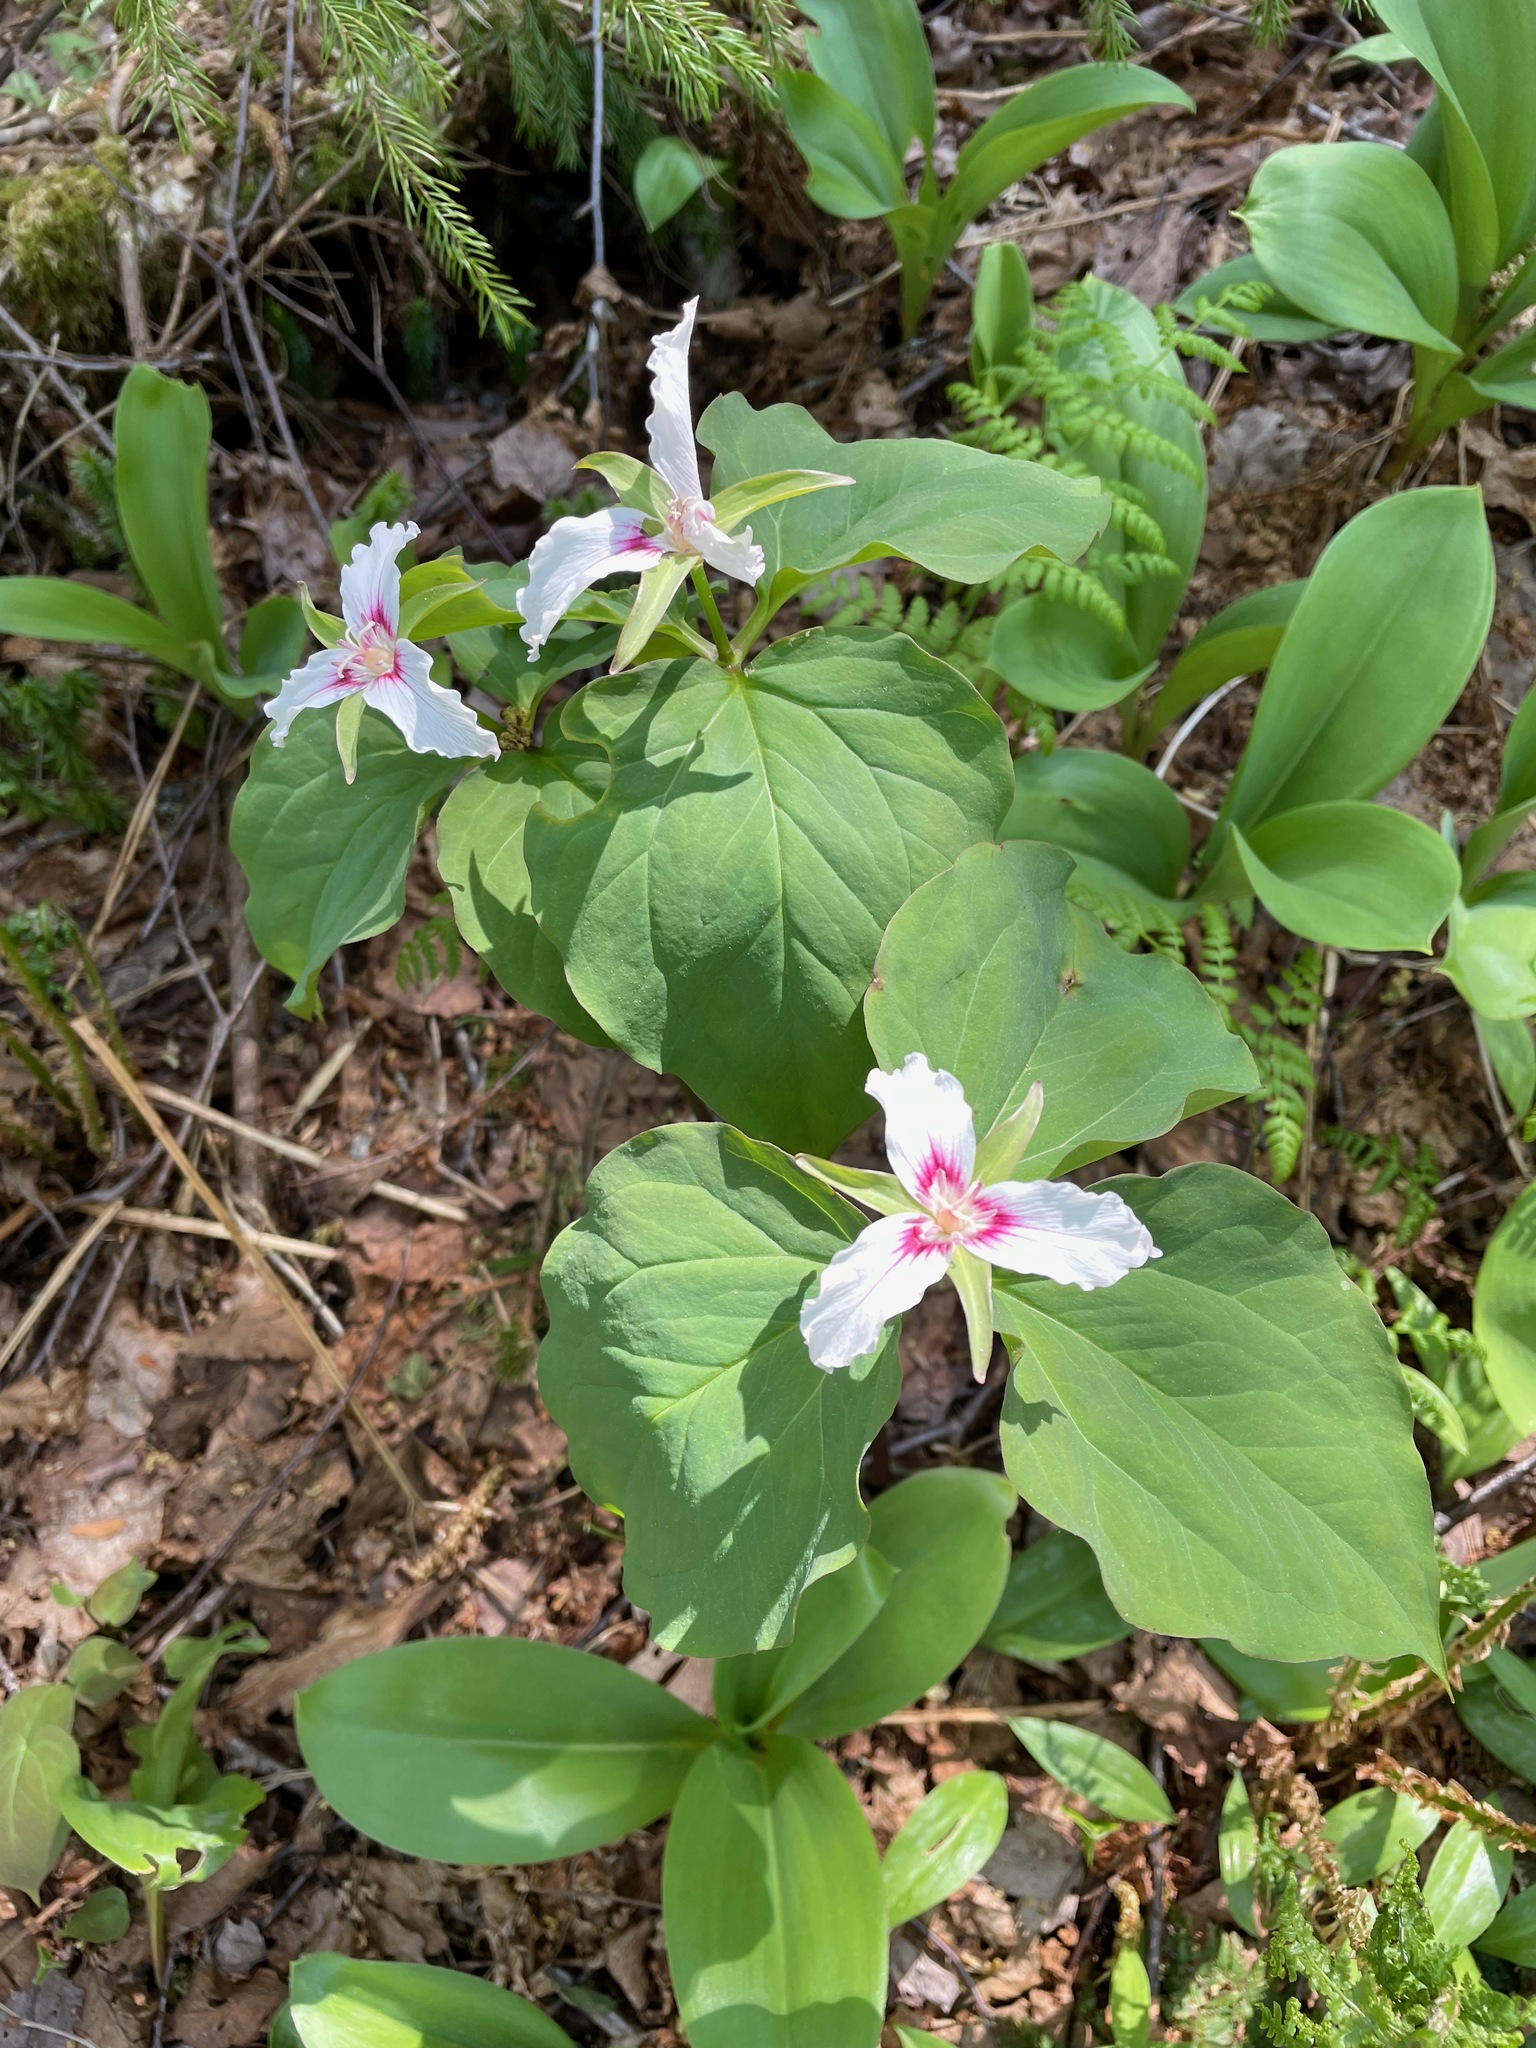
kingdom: Plantae
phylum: Tracheophyta
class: Liliopsida
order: Liliales
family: Melanthiaceae
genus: Trillium
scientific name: Trillium undulatum
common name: Paint trillium
